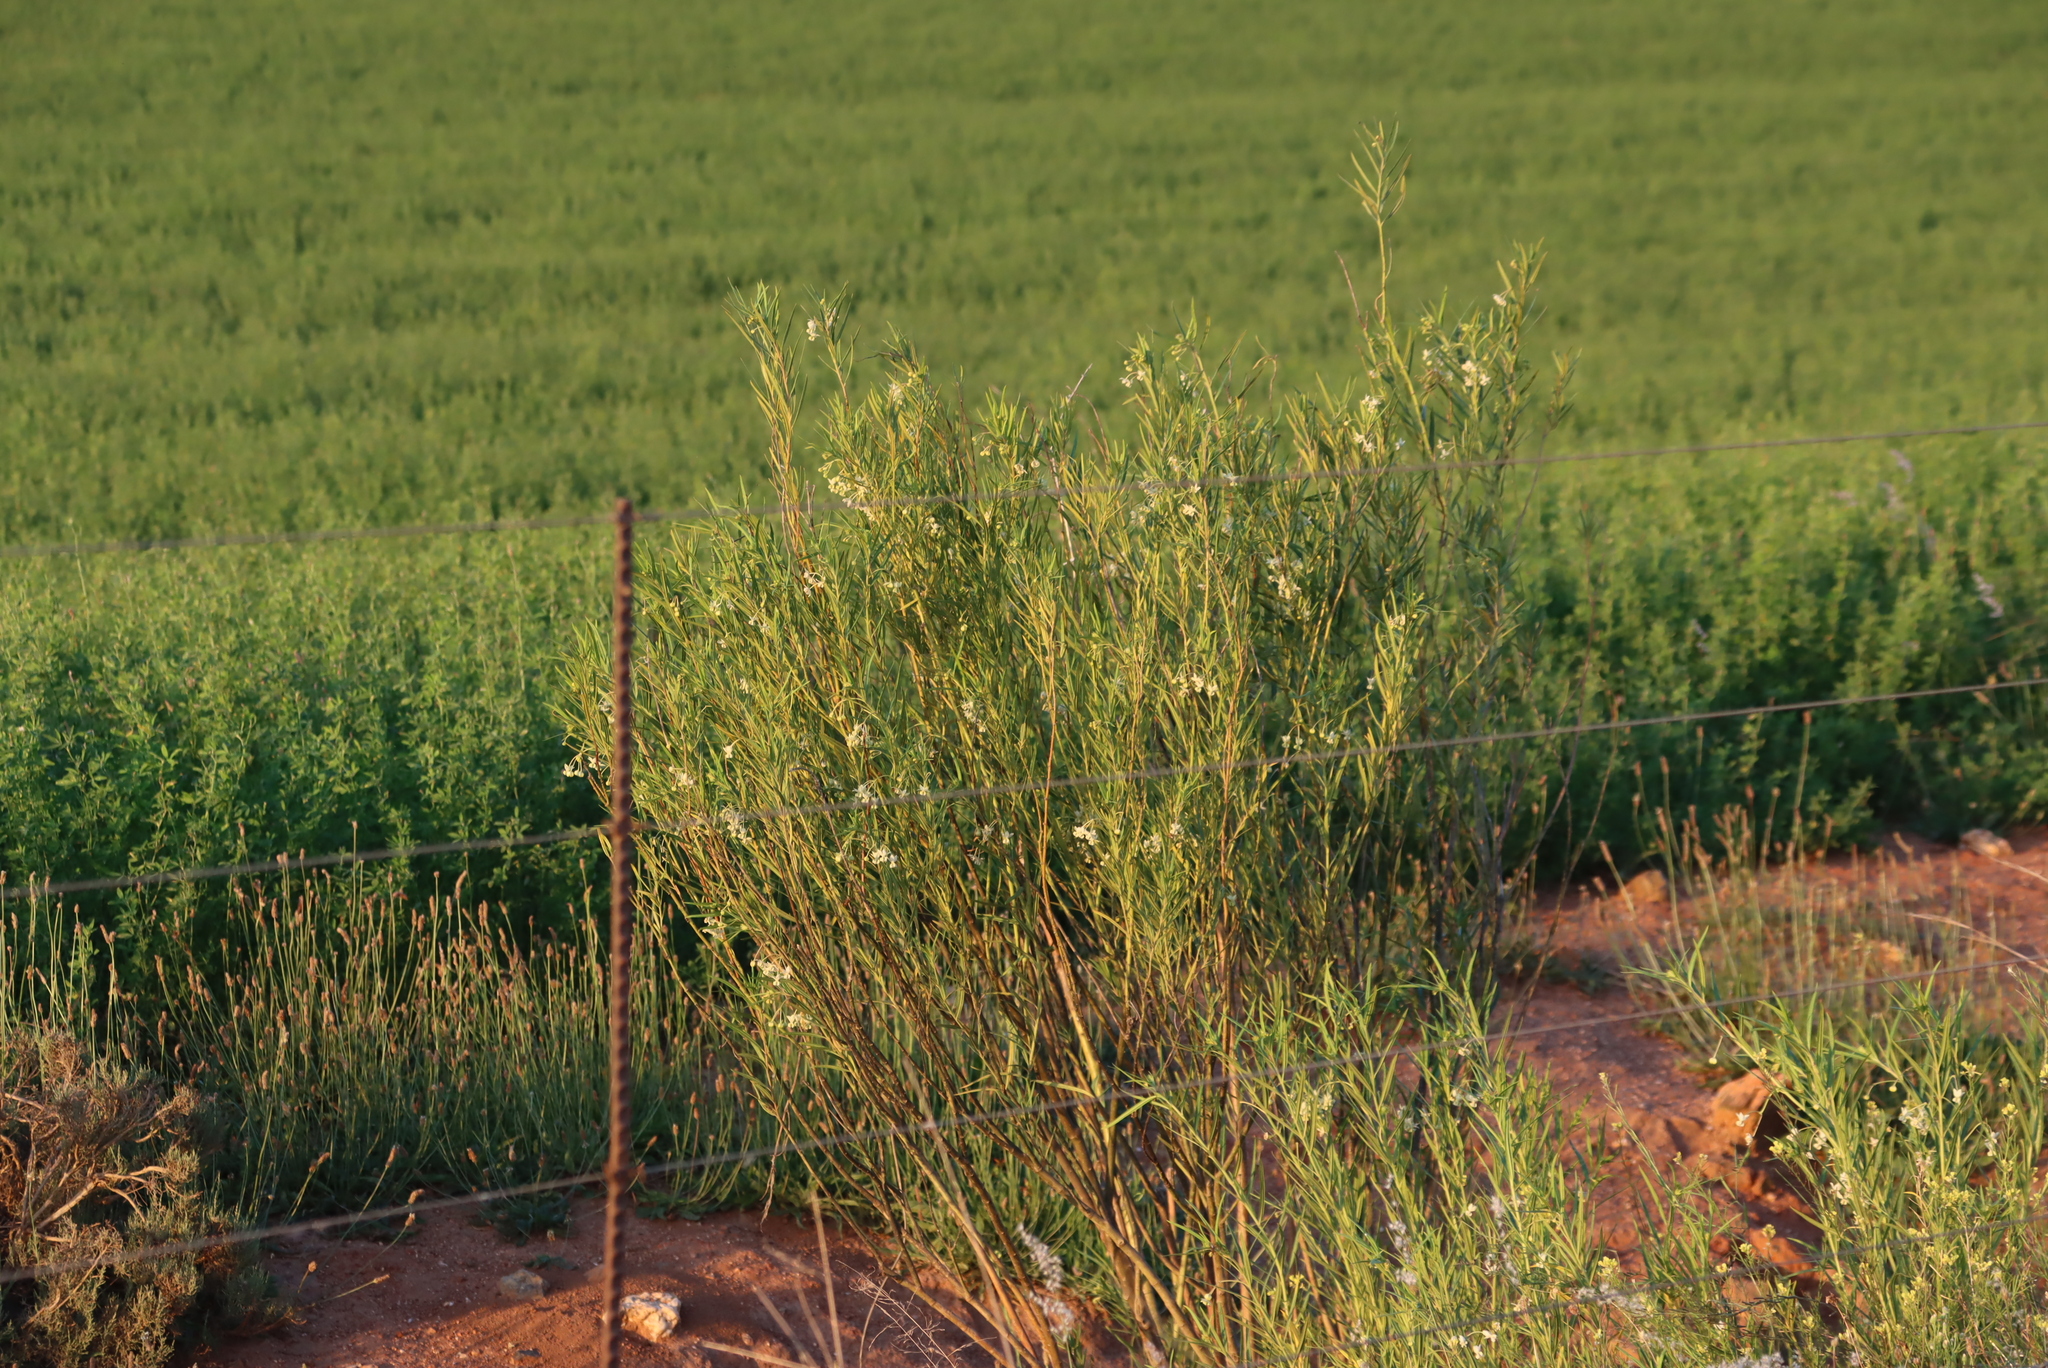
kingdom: Plantae
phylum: Tracheophyta
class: Magnoliopsida
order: Gentianales
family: Apocynaceae
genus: Gomphocarpus
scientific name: Gomphocarpus fruticosus
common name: Milkweed
